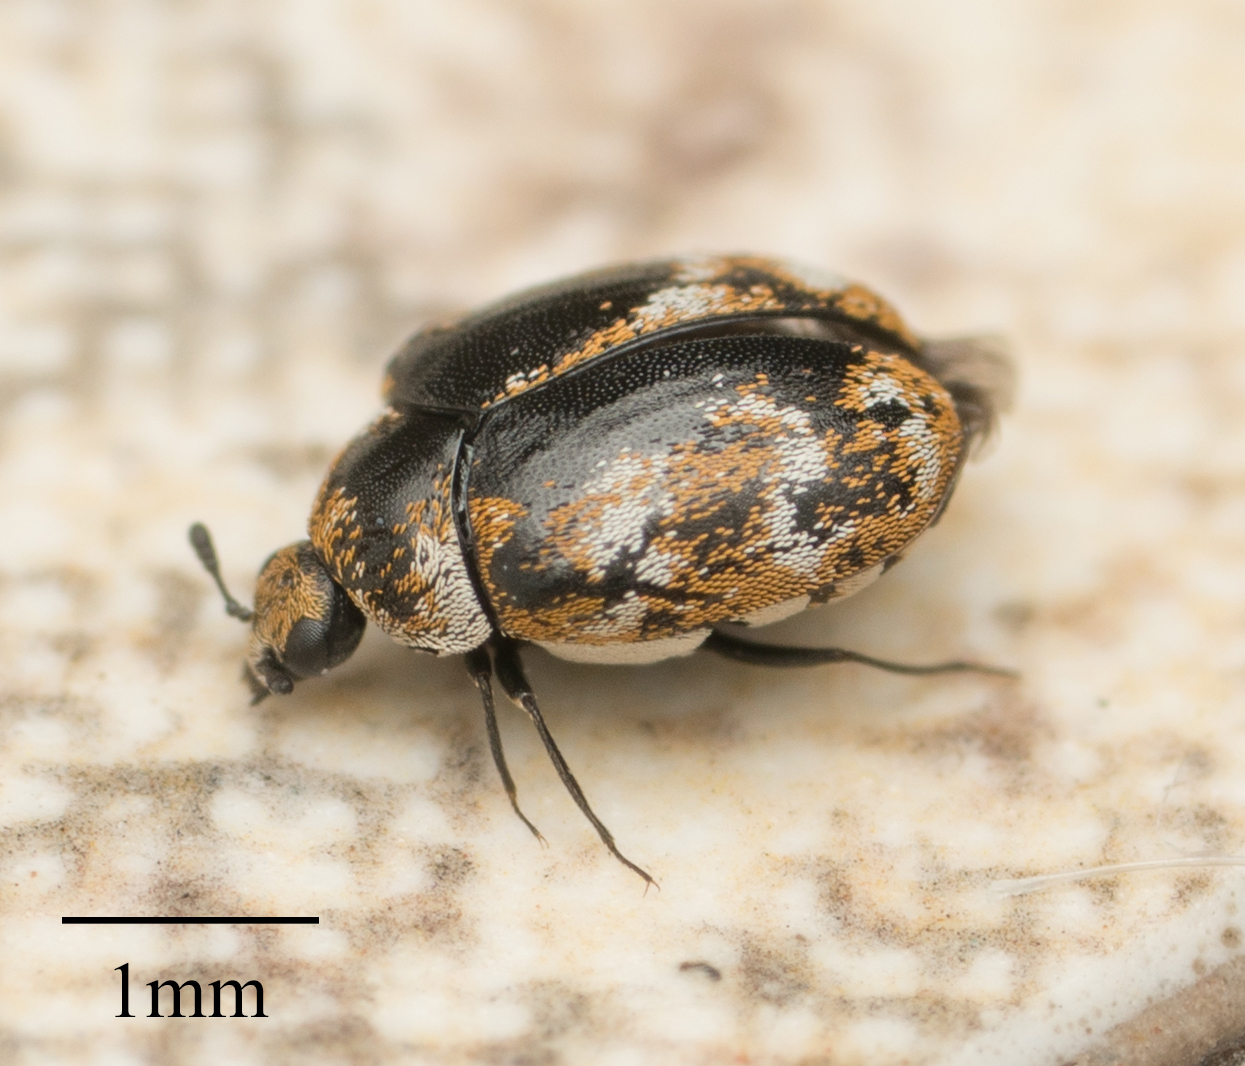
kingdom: Animalia
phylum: Arthropoda
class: Insecta
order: Coleoptera
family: Dermestidae
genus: Anthrenus
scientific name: Anthrenus verbasci
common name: Varied carpet beetle
